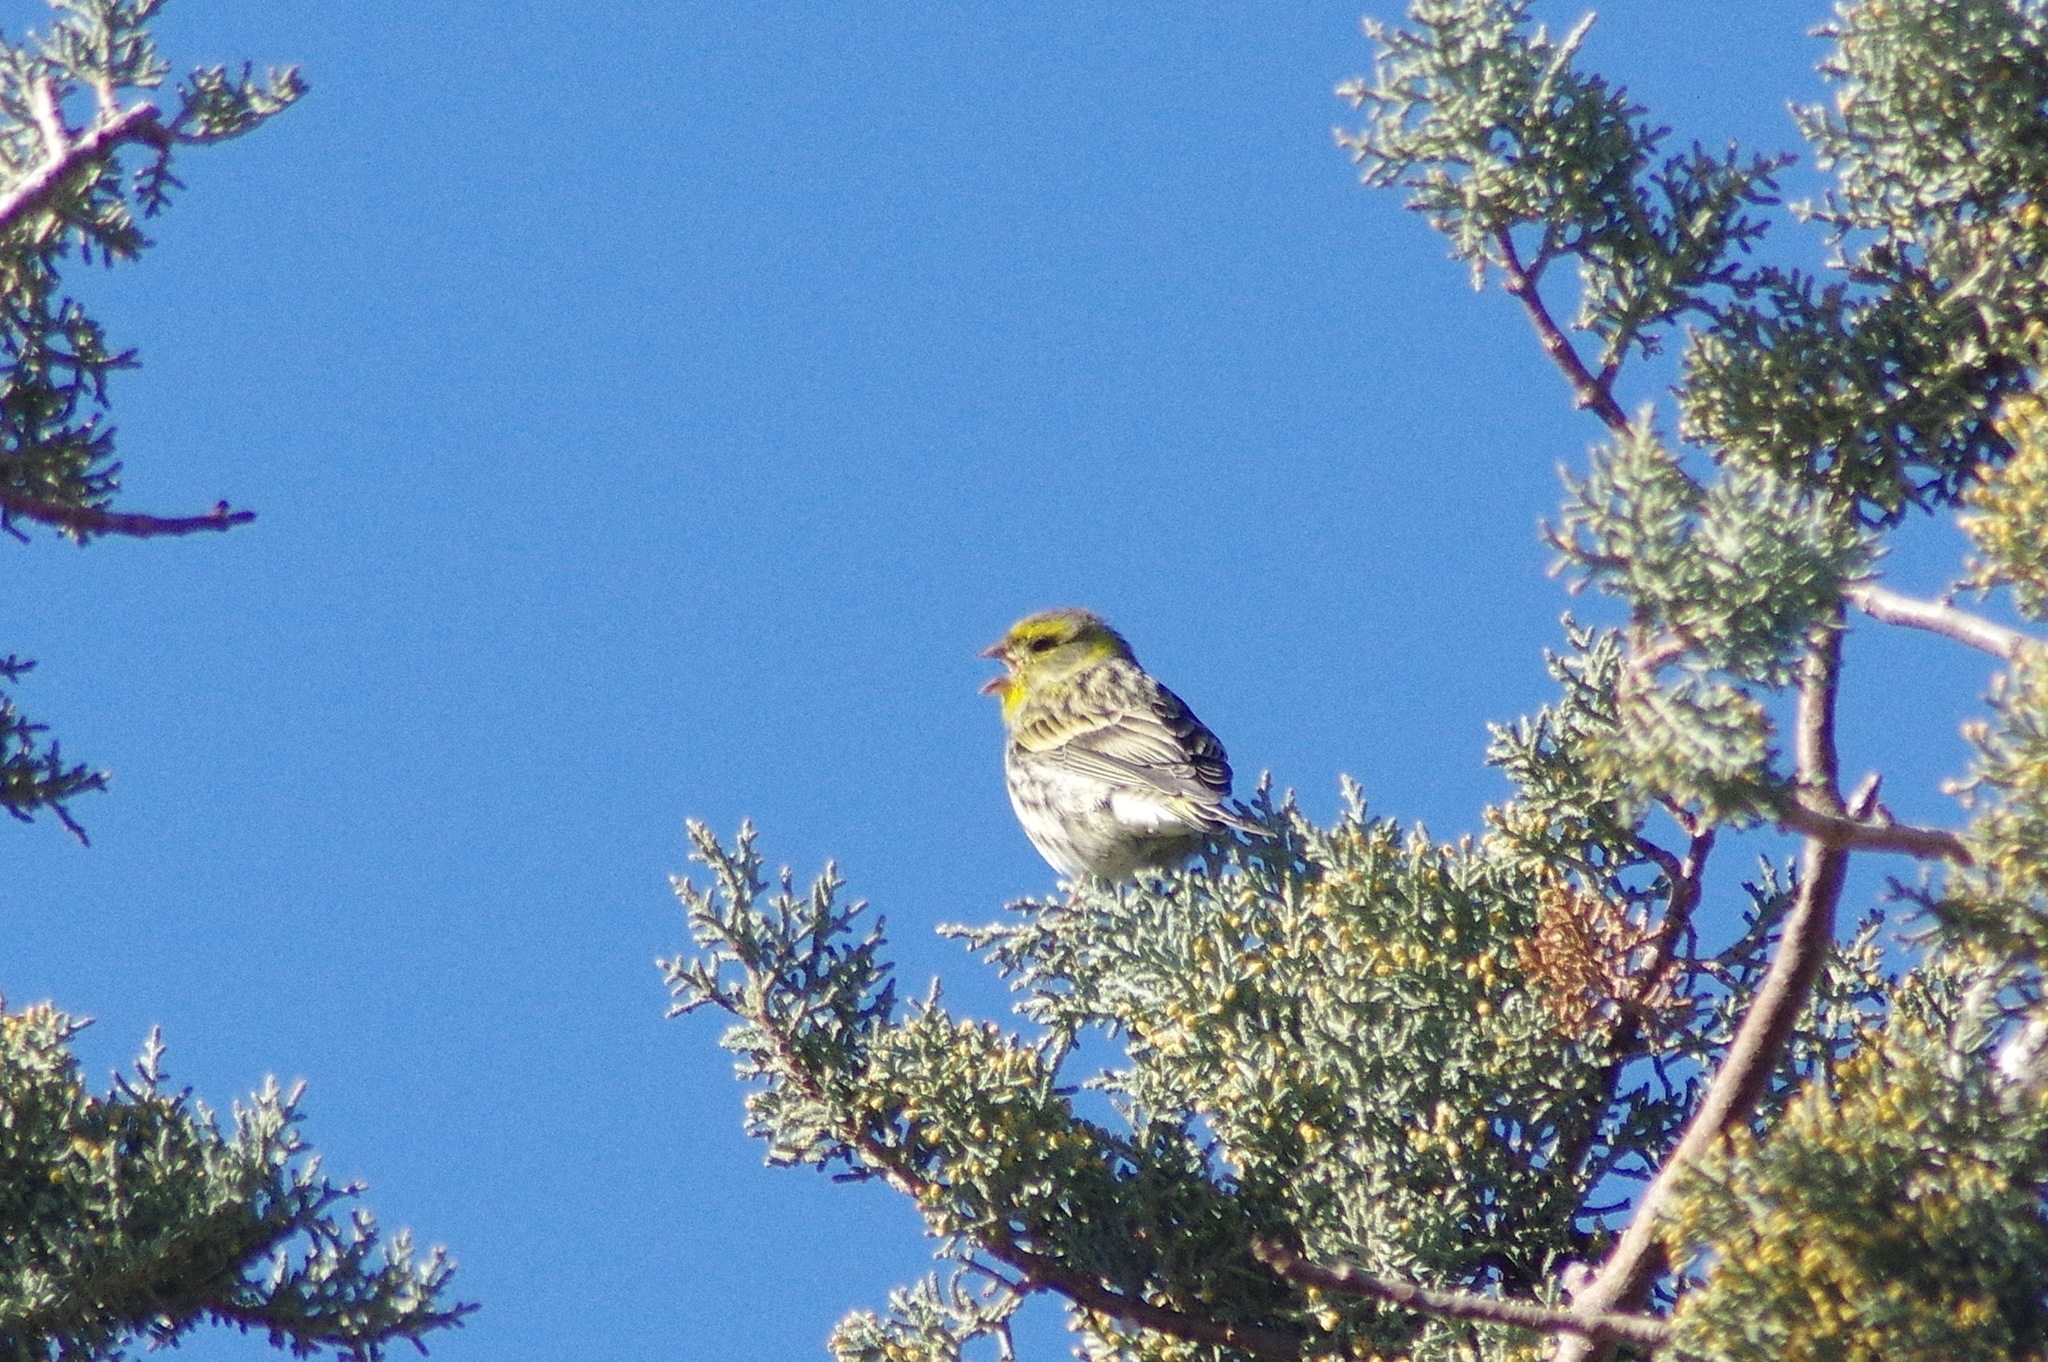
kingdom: Animalia
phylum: Chordata
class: Aves
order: Passeriformes
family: Fringillidae
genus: Serinus
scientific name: Serinus serinus
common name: European serin
